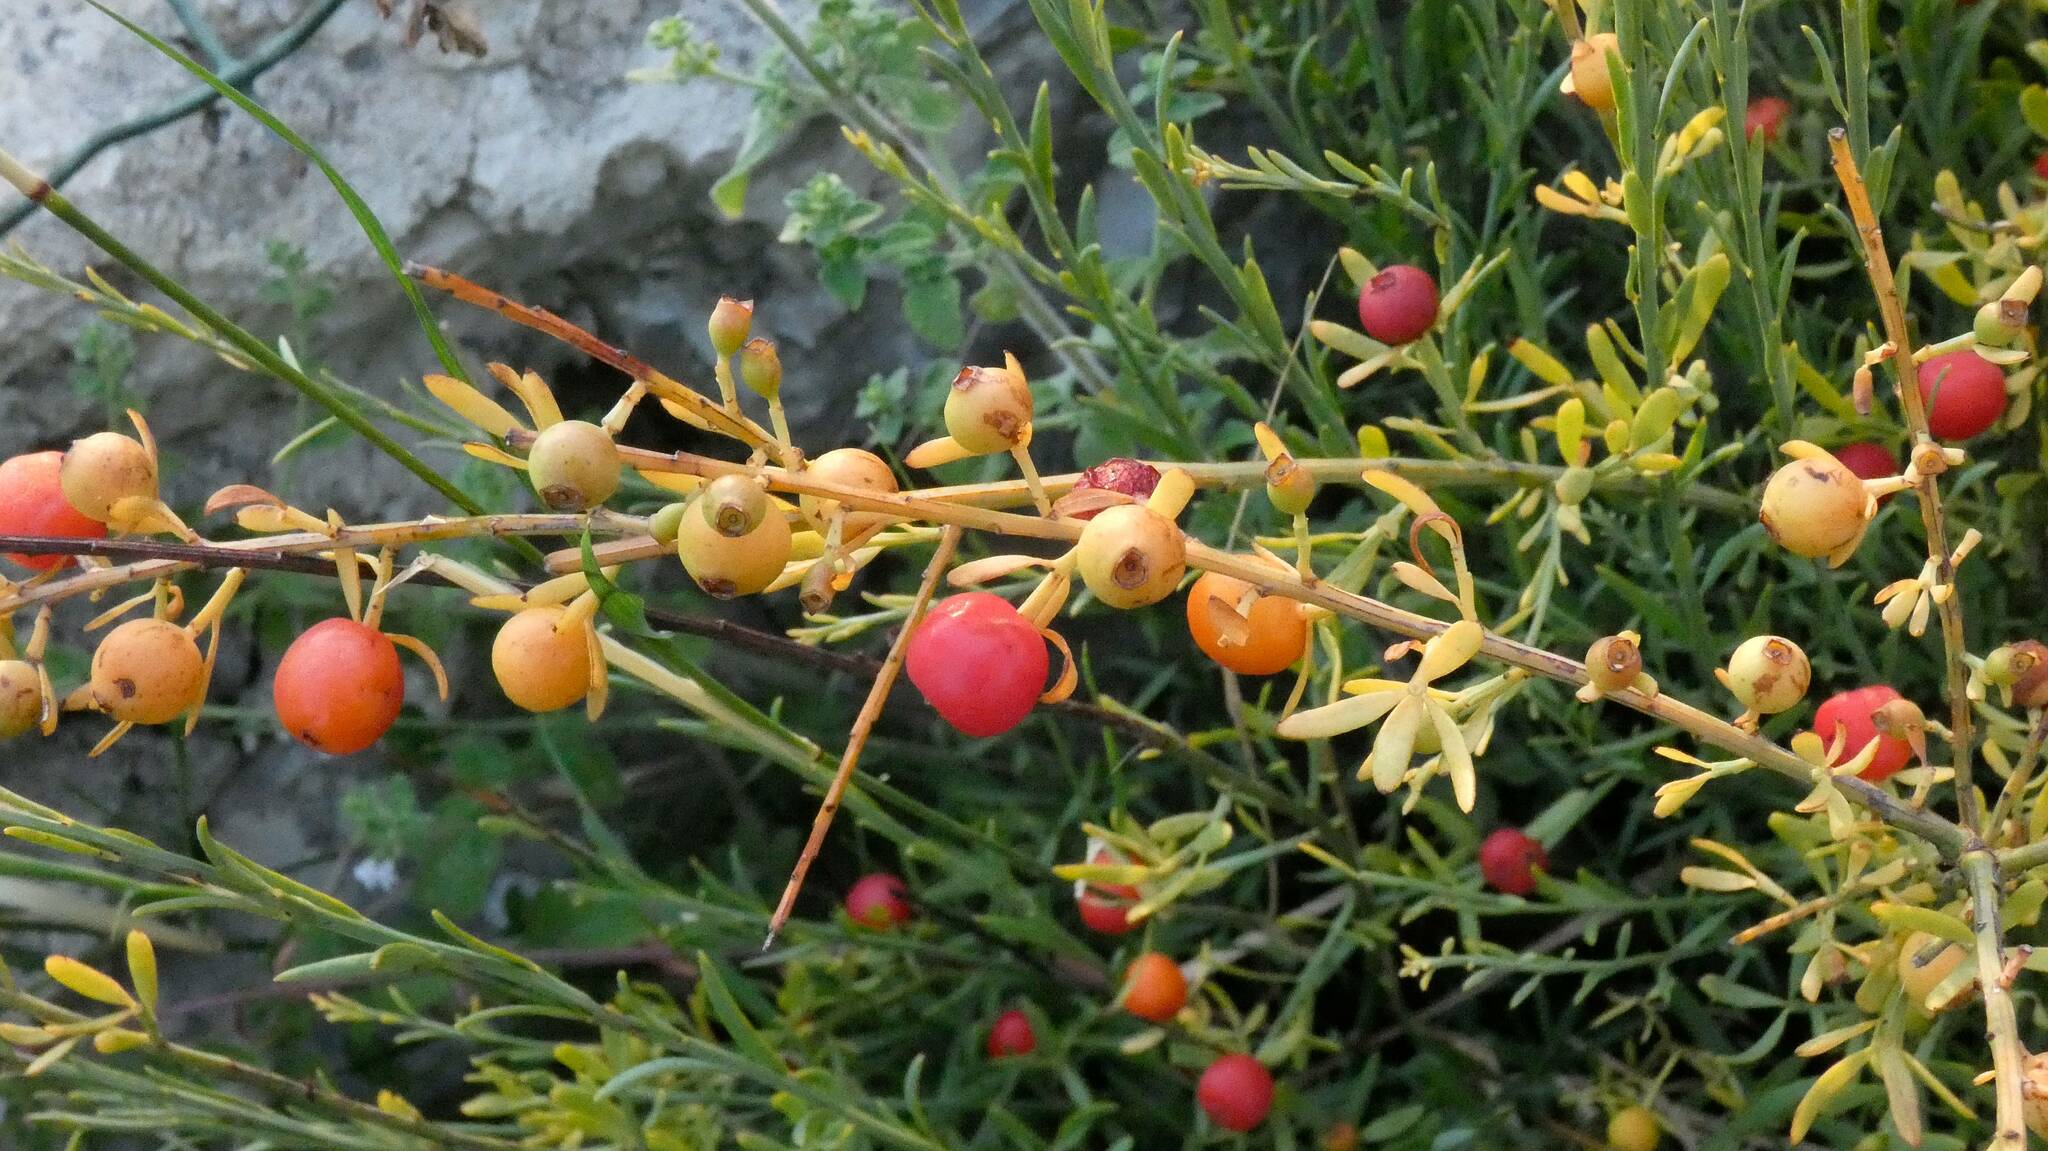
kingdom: Plantae
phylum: Tracheophyta
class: Magnoliopsida
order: Santalales
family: Santalaceae
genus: Osyris
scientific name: Osyris alba
